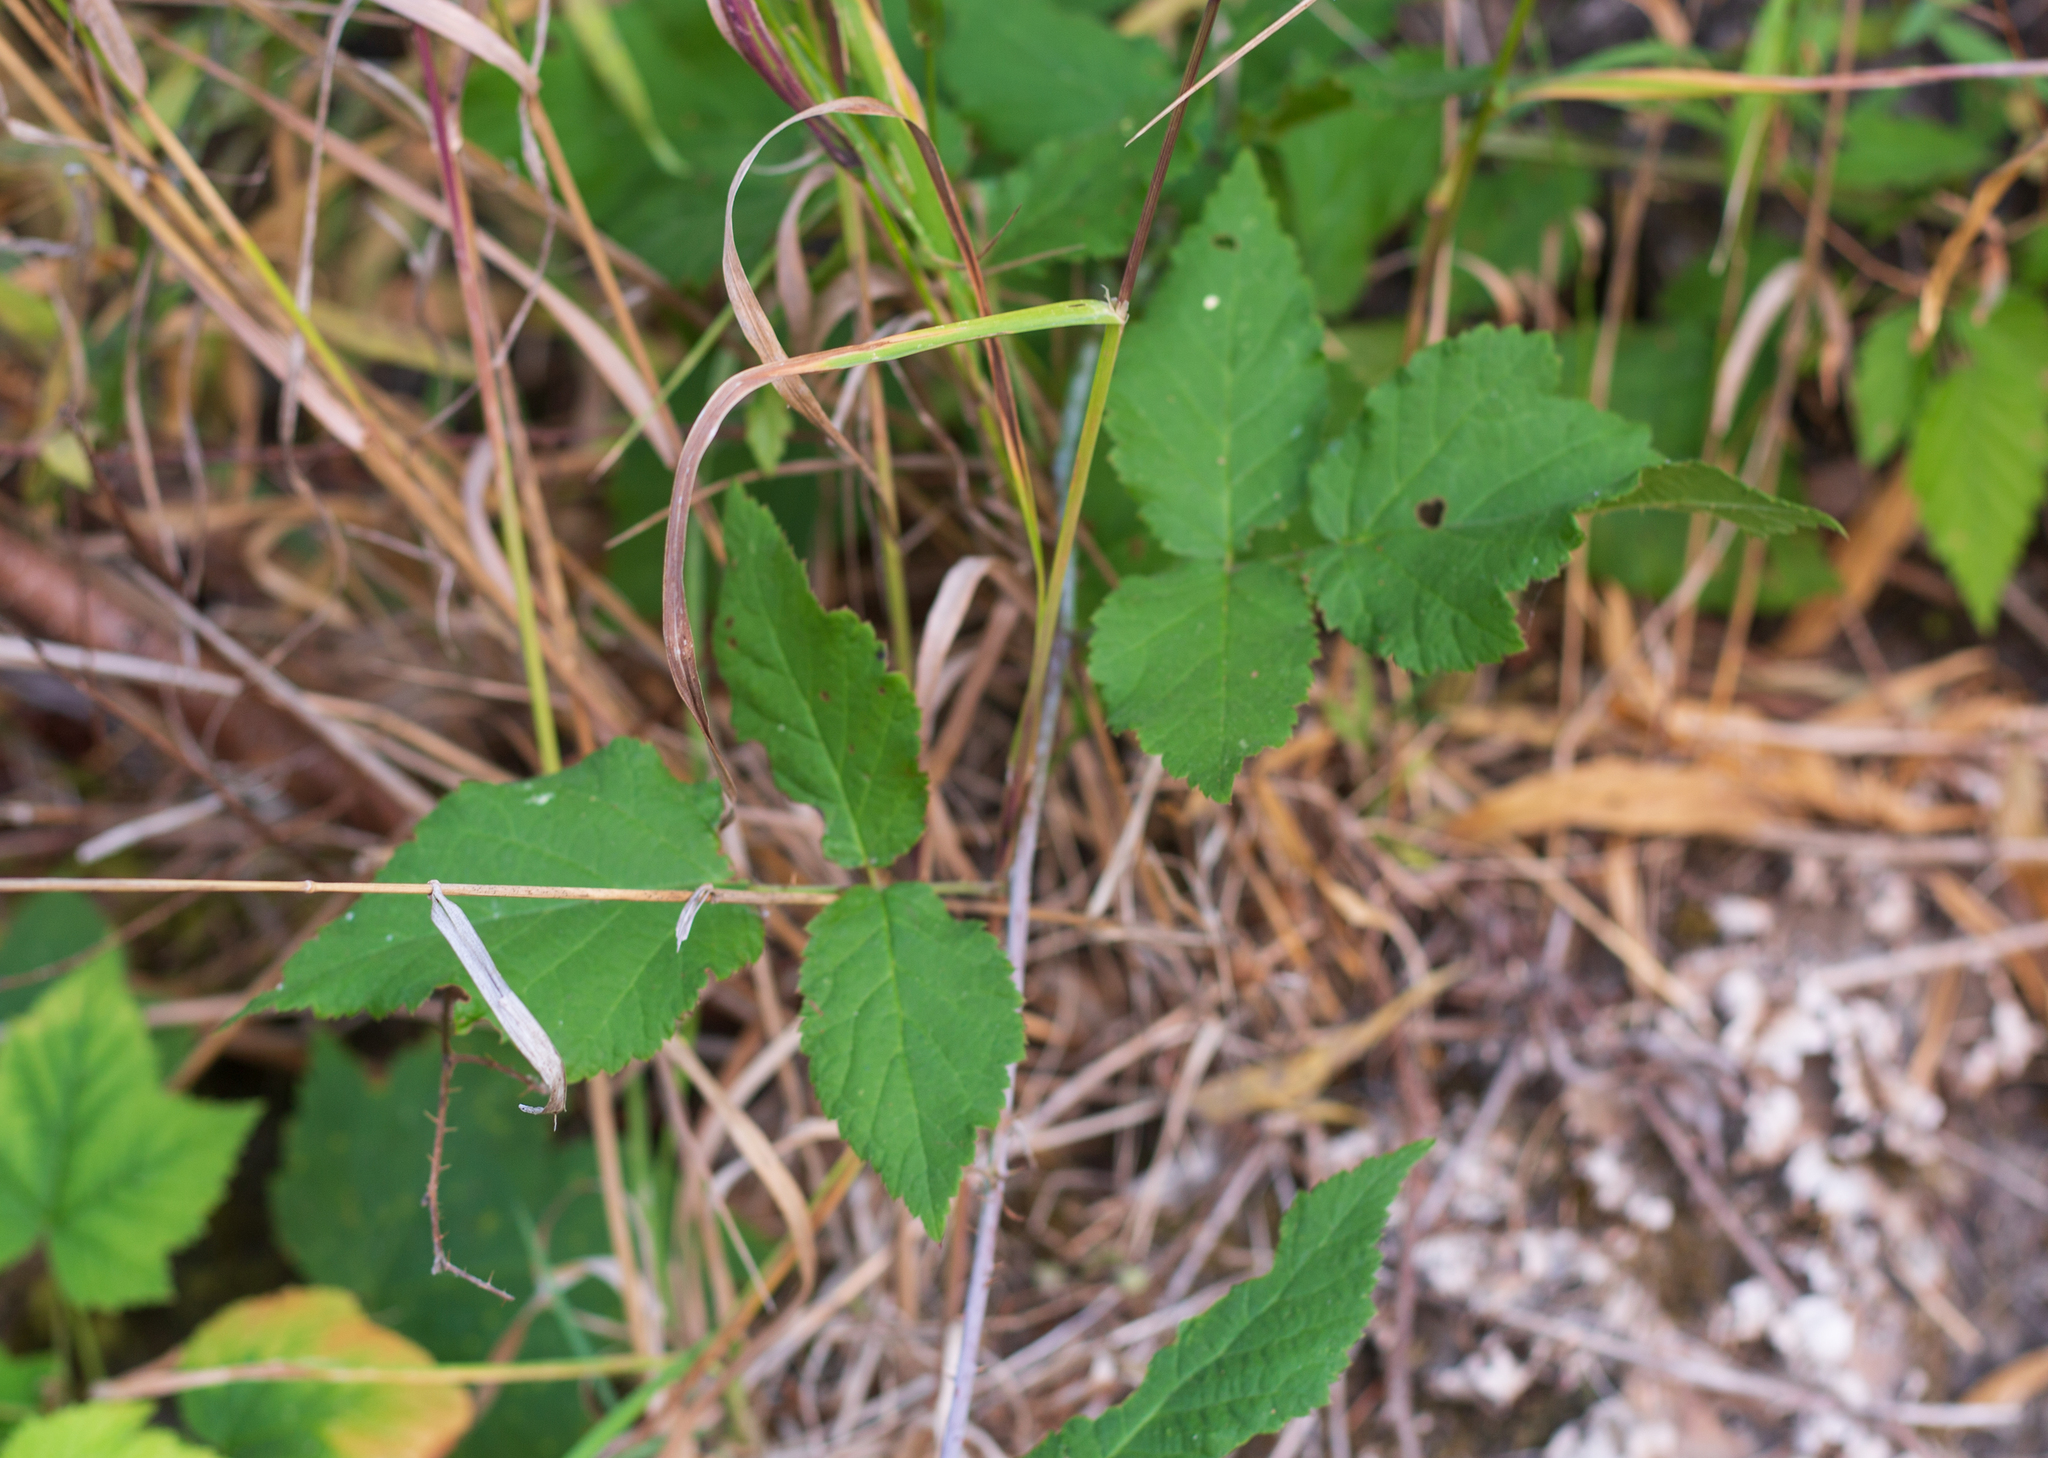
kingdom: Plantae
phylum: Tracheophyta
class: Magnoliopsida
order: Rosales
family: Rosaceae
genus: Rubus
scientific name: Rubus ursinus
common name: Pacific blackberry
